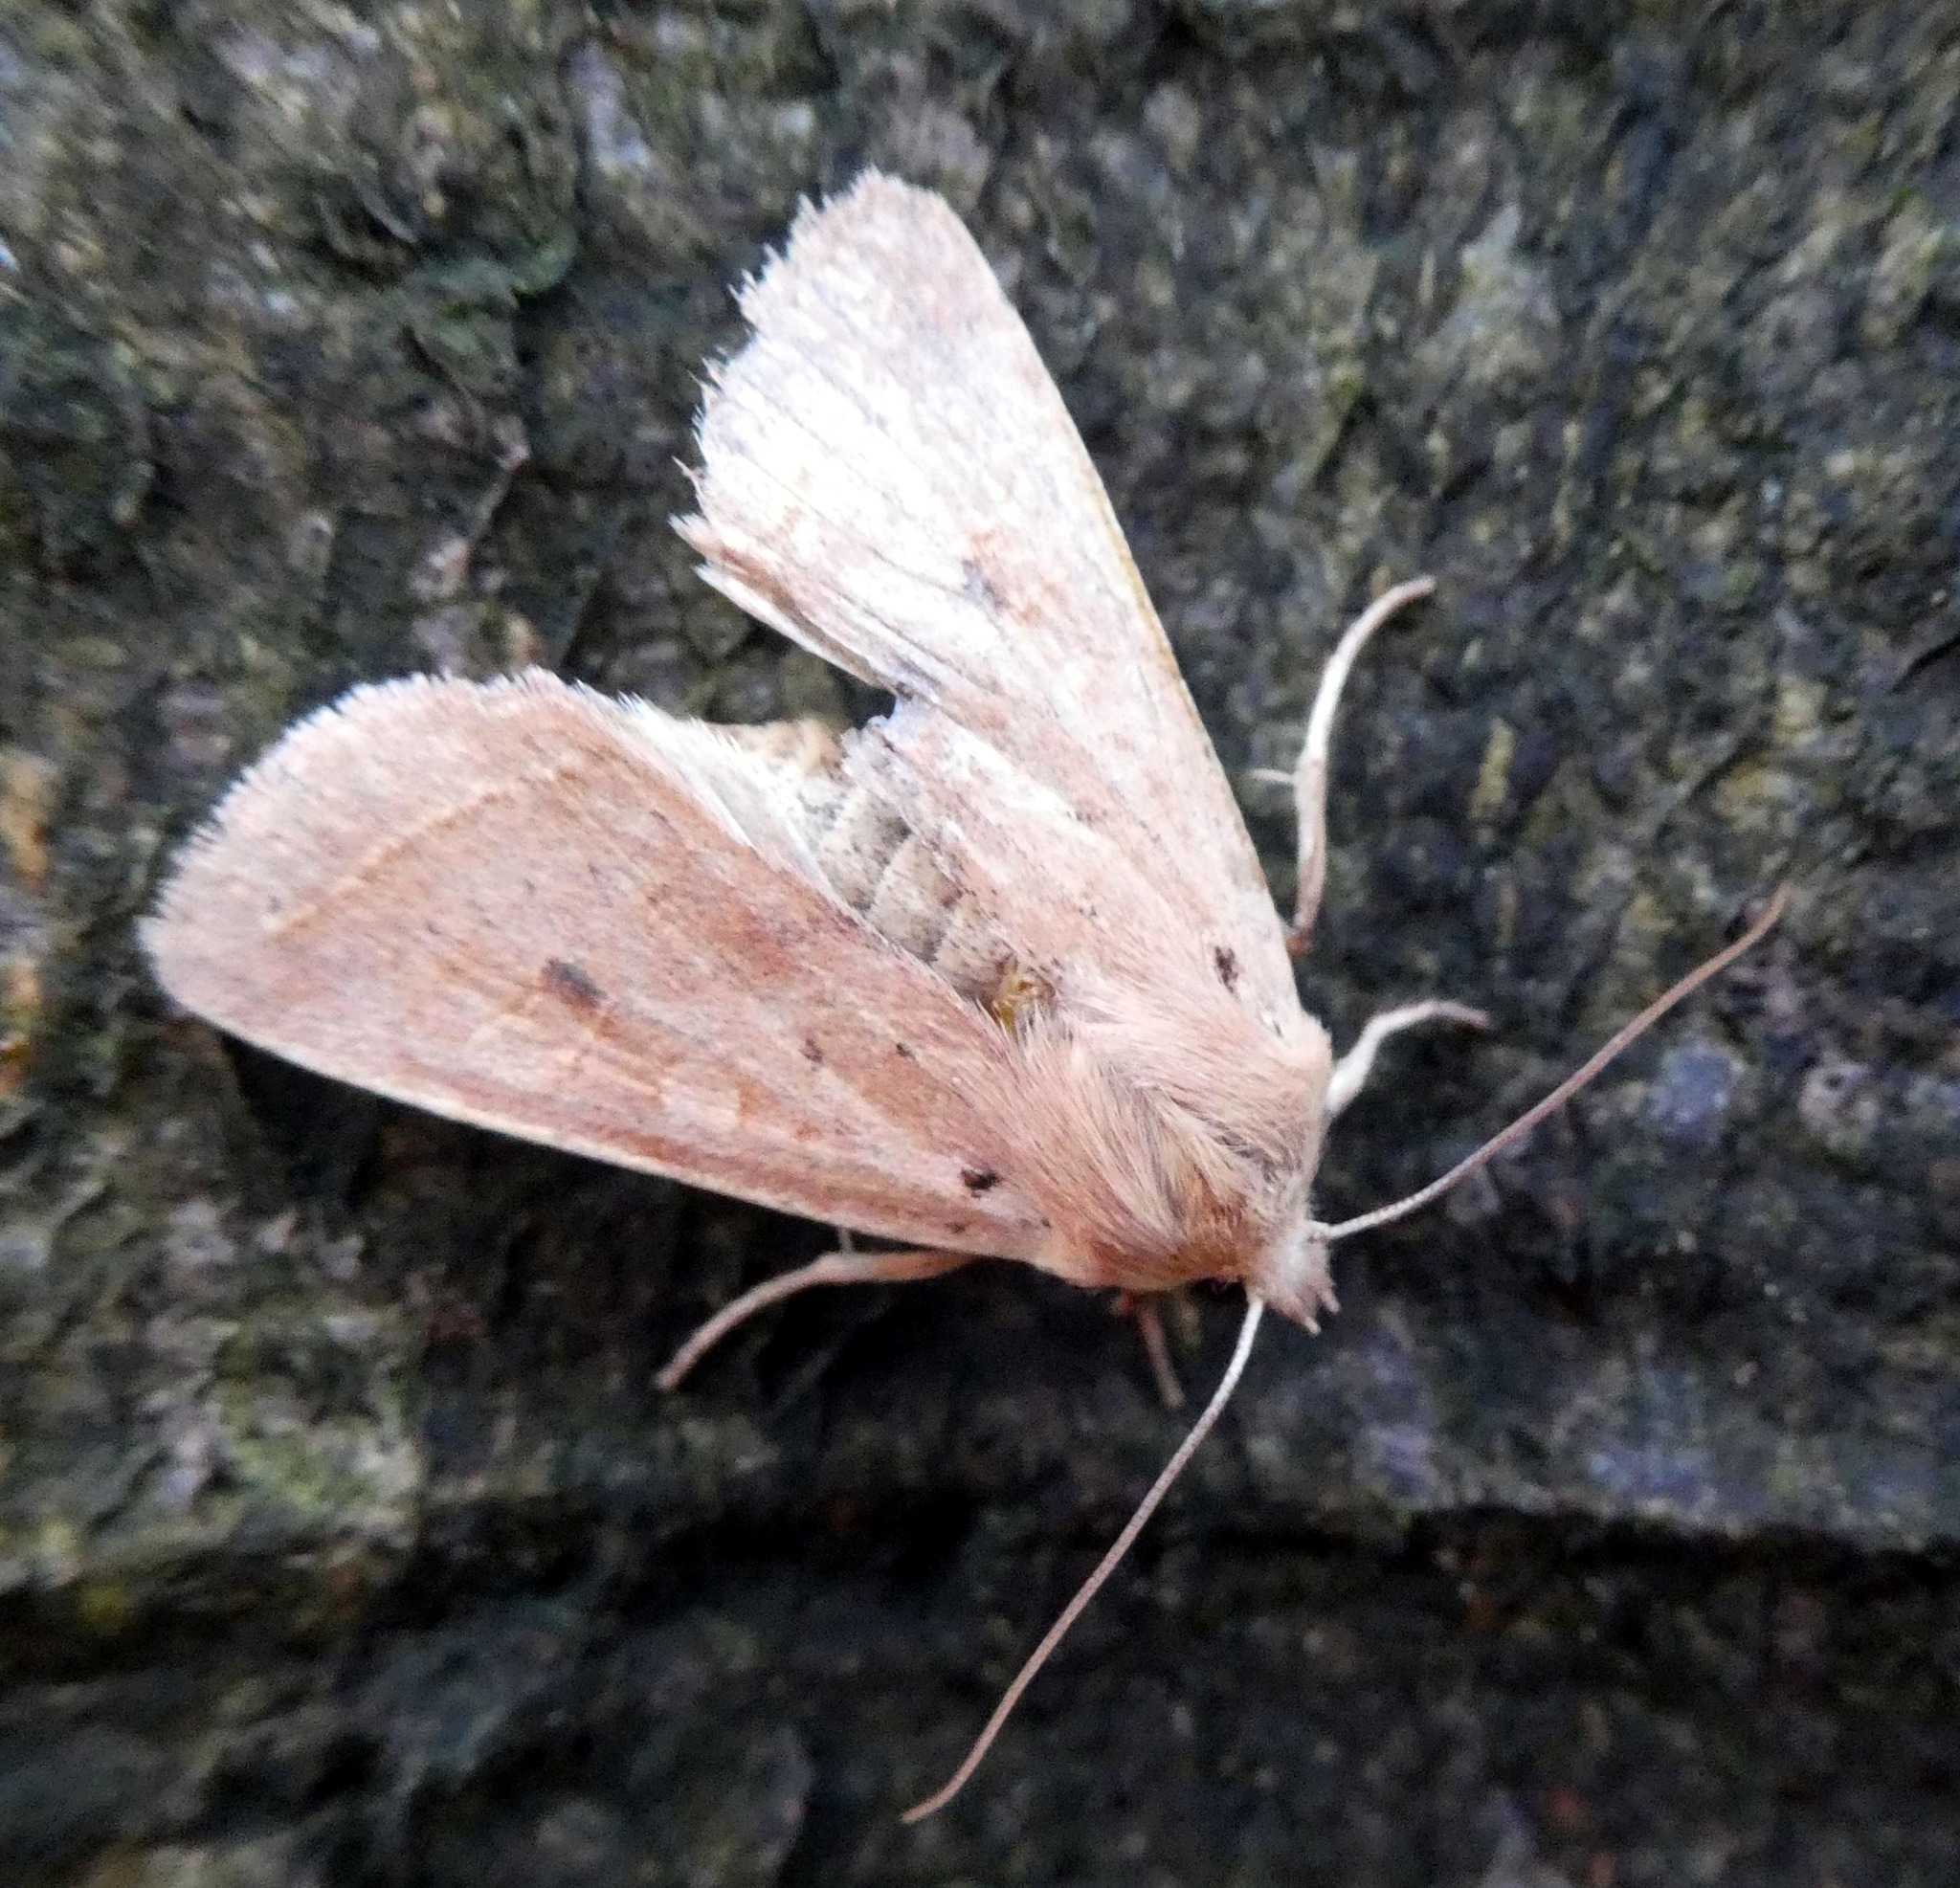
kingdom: Animalia
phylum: Arthropoda
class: Insecta
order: Lepidoptera
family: Noctuidae
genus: Agrochola
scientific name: Agrochola macilenta
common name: Yellow-line quaker
